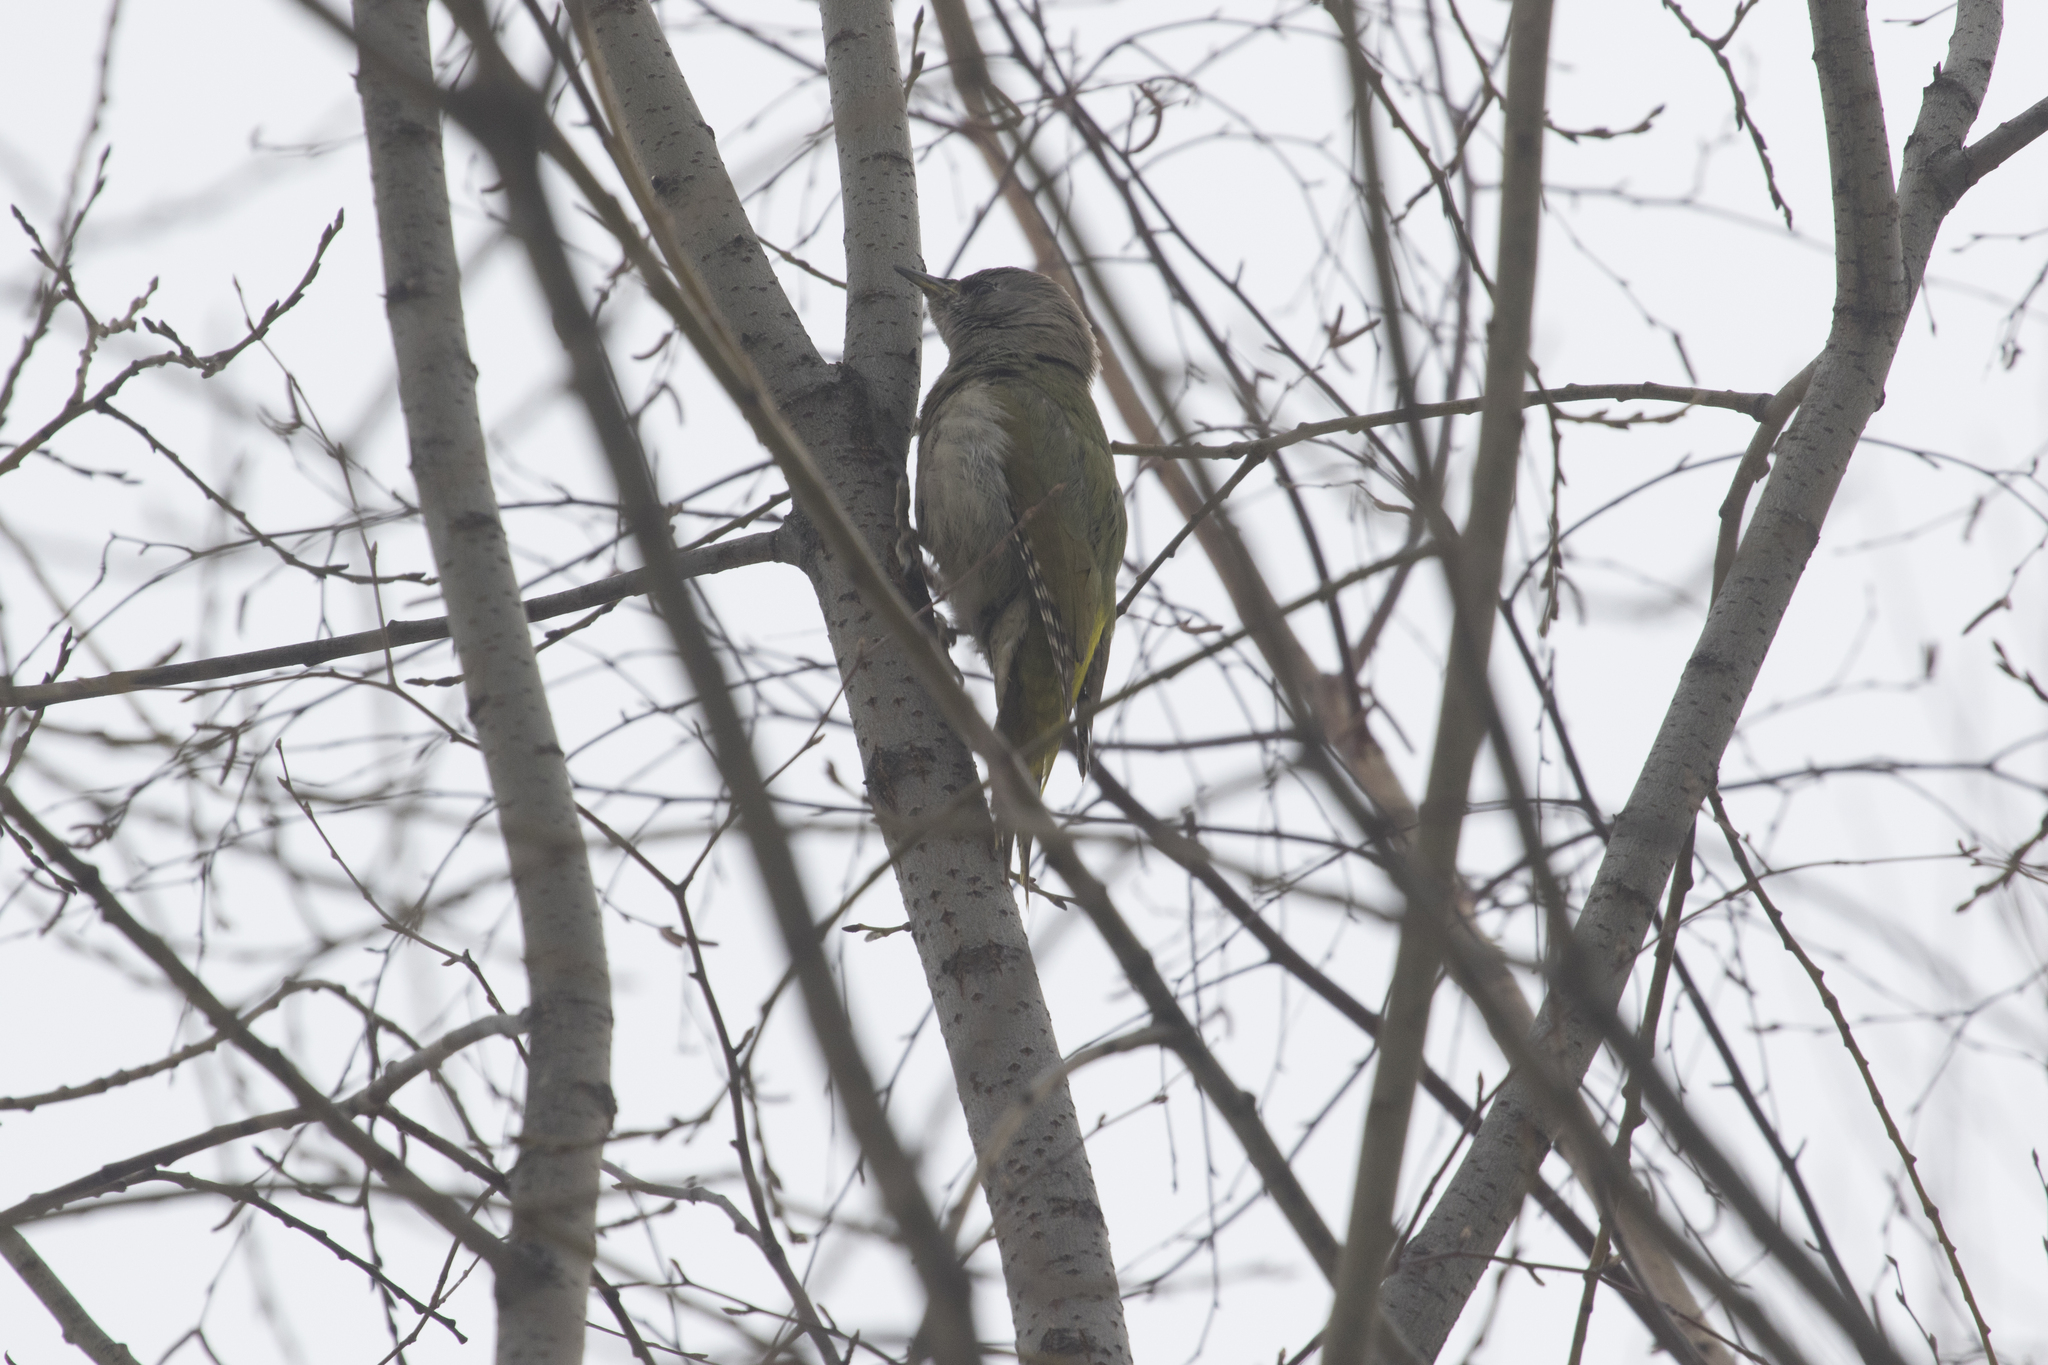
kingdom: Animalia
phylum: Chordata
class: Aves
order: Piciformes
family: Picidae
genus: Picus
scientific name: Picus canus
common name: Grey-headed woodpecker
